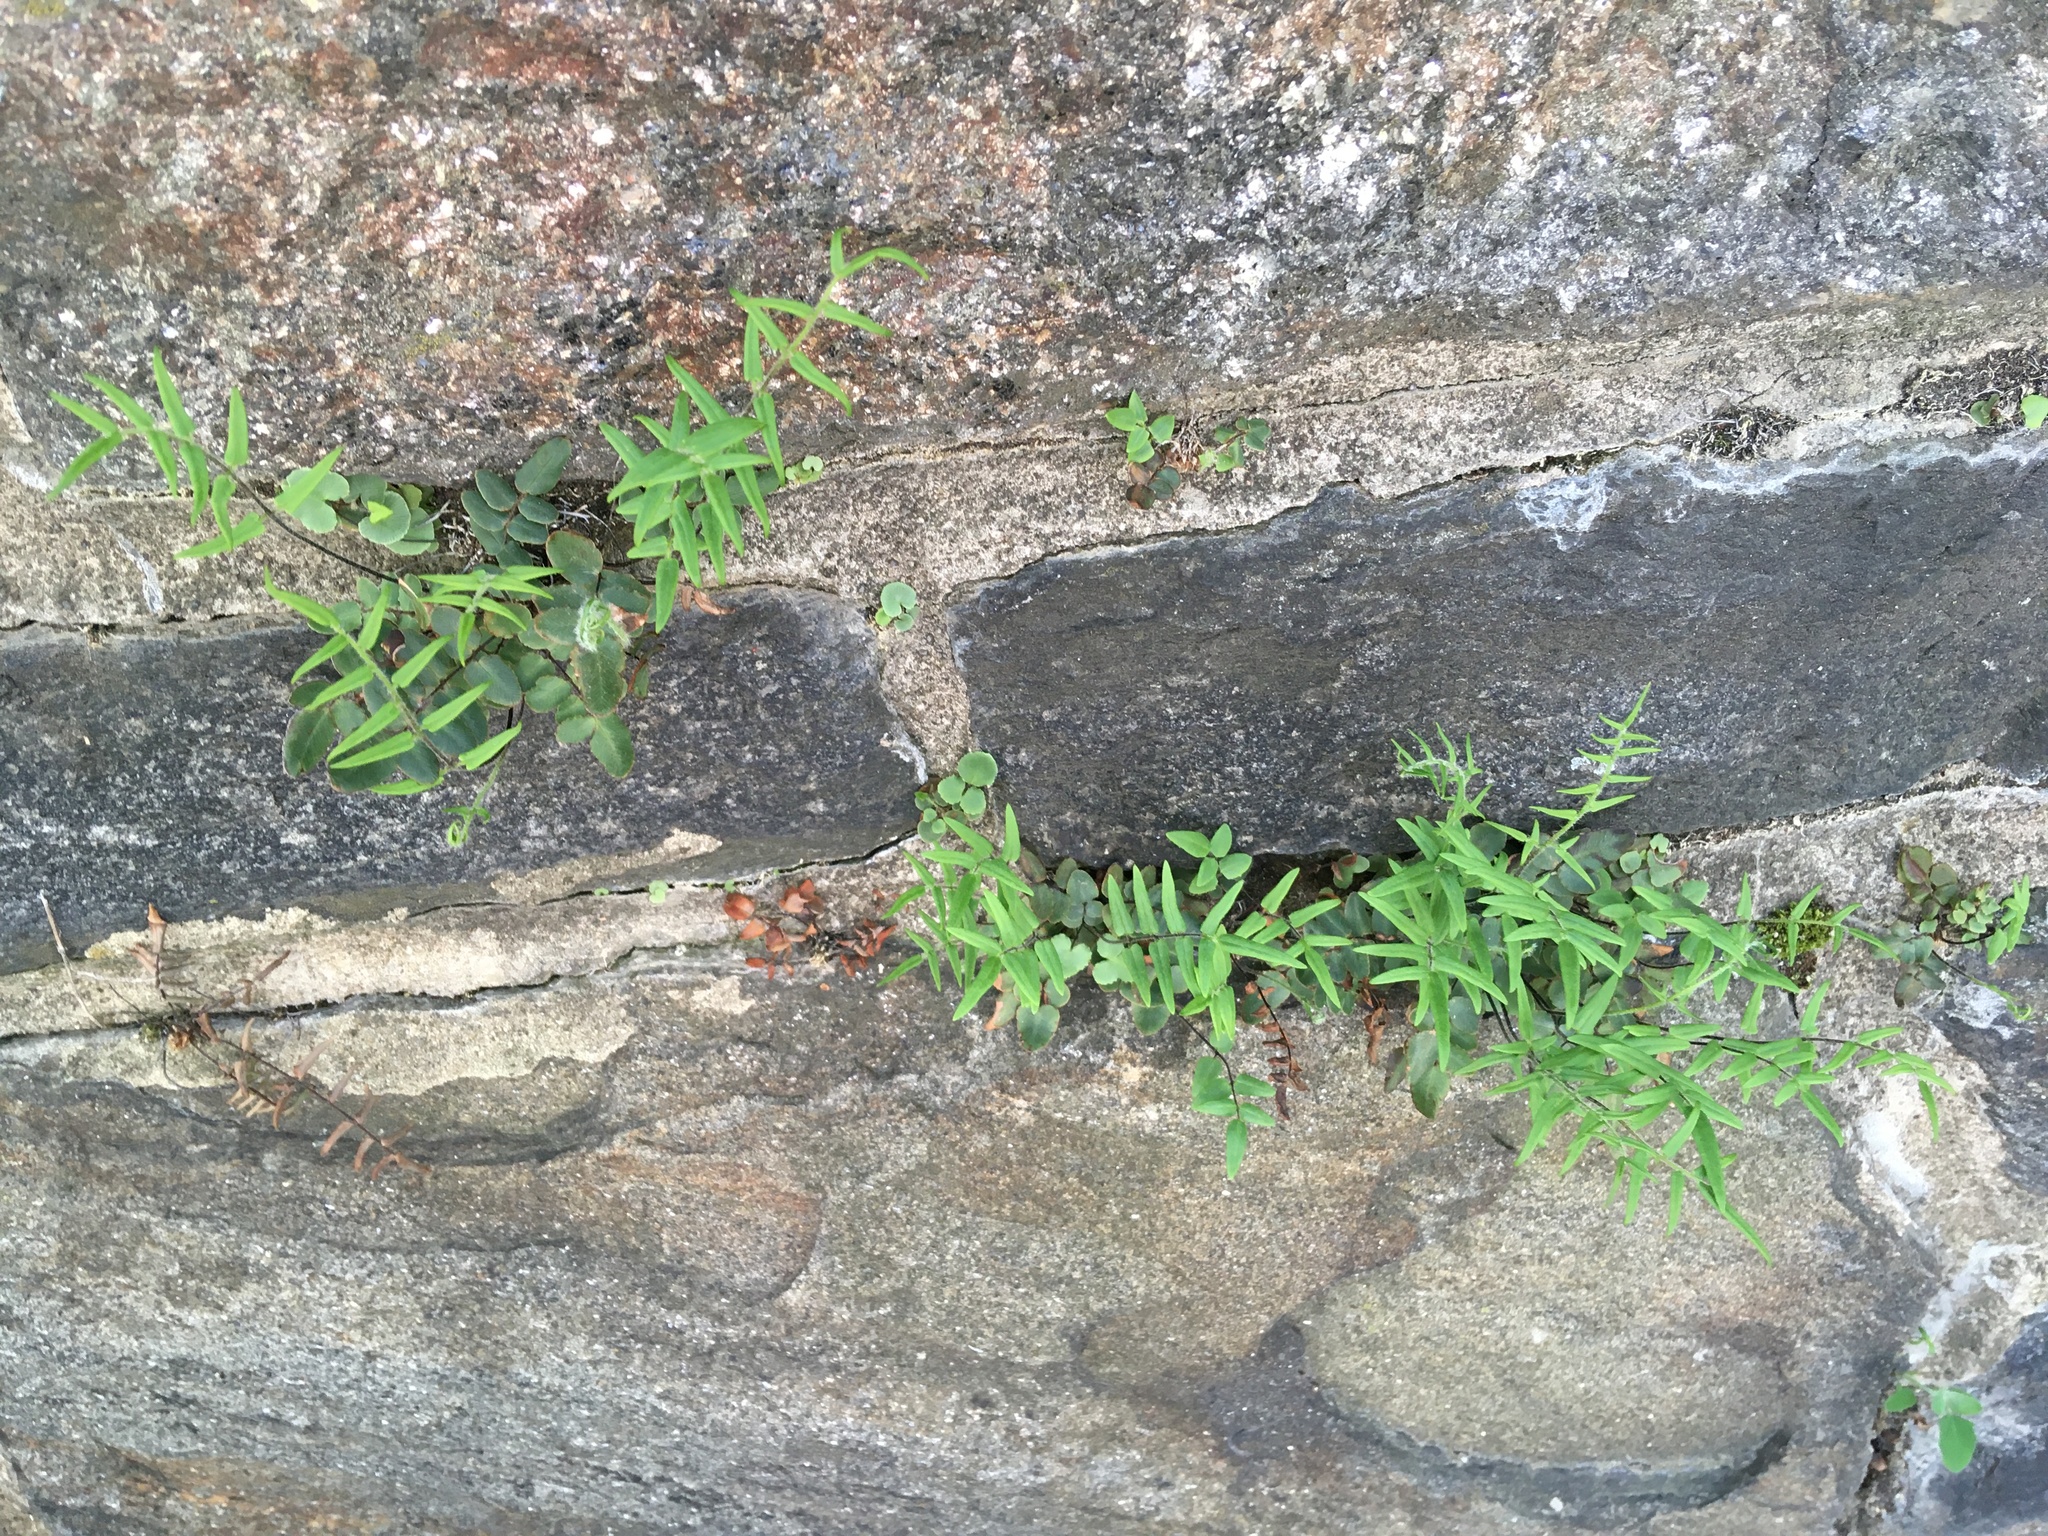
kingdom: Plantae
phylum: Tracheophyta
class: Polypodiopsida
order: Polypodiales
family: Pteridaceae
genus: Pellaea
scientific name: Pellaea atropurpurea
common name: Hairy cliffbrake
